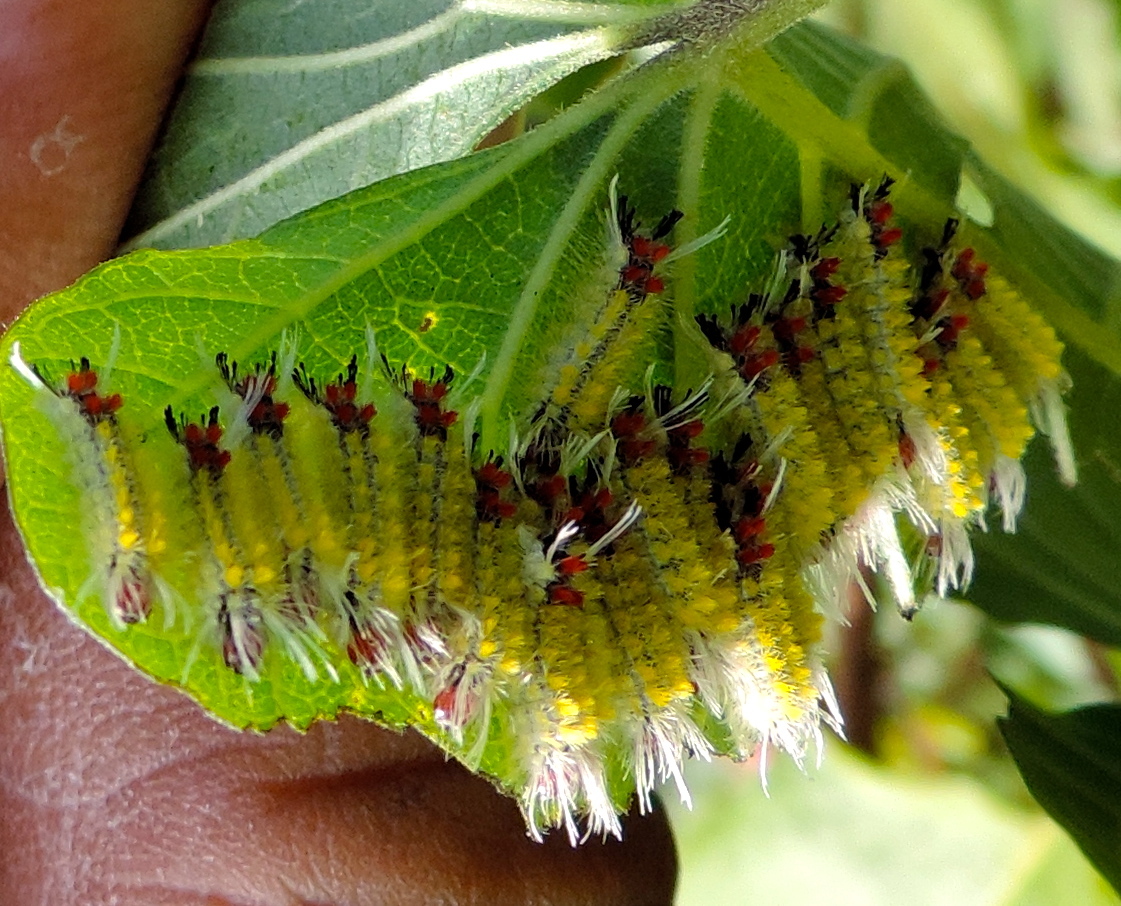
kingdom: Animalia
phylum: Arthropoda
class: Insecta
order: Lepidoptera
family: Erebidae
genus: Lophocampa
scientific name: Lophocampa
